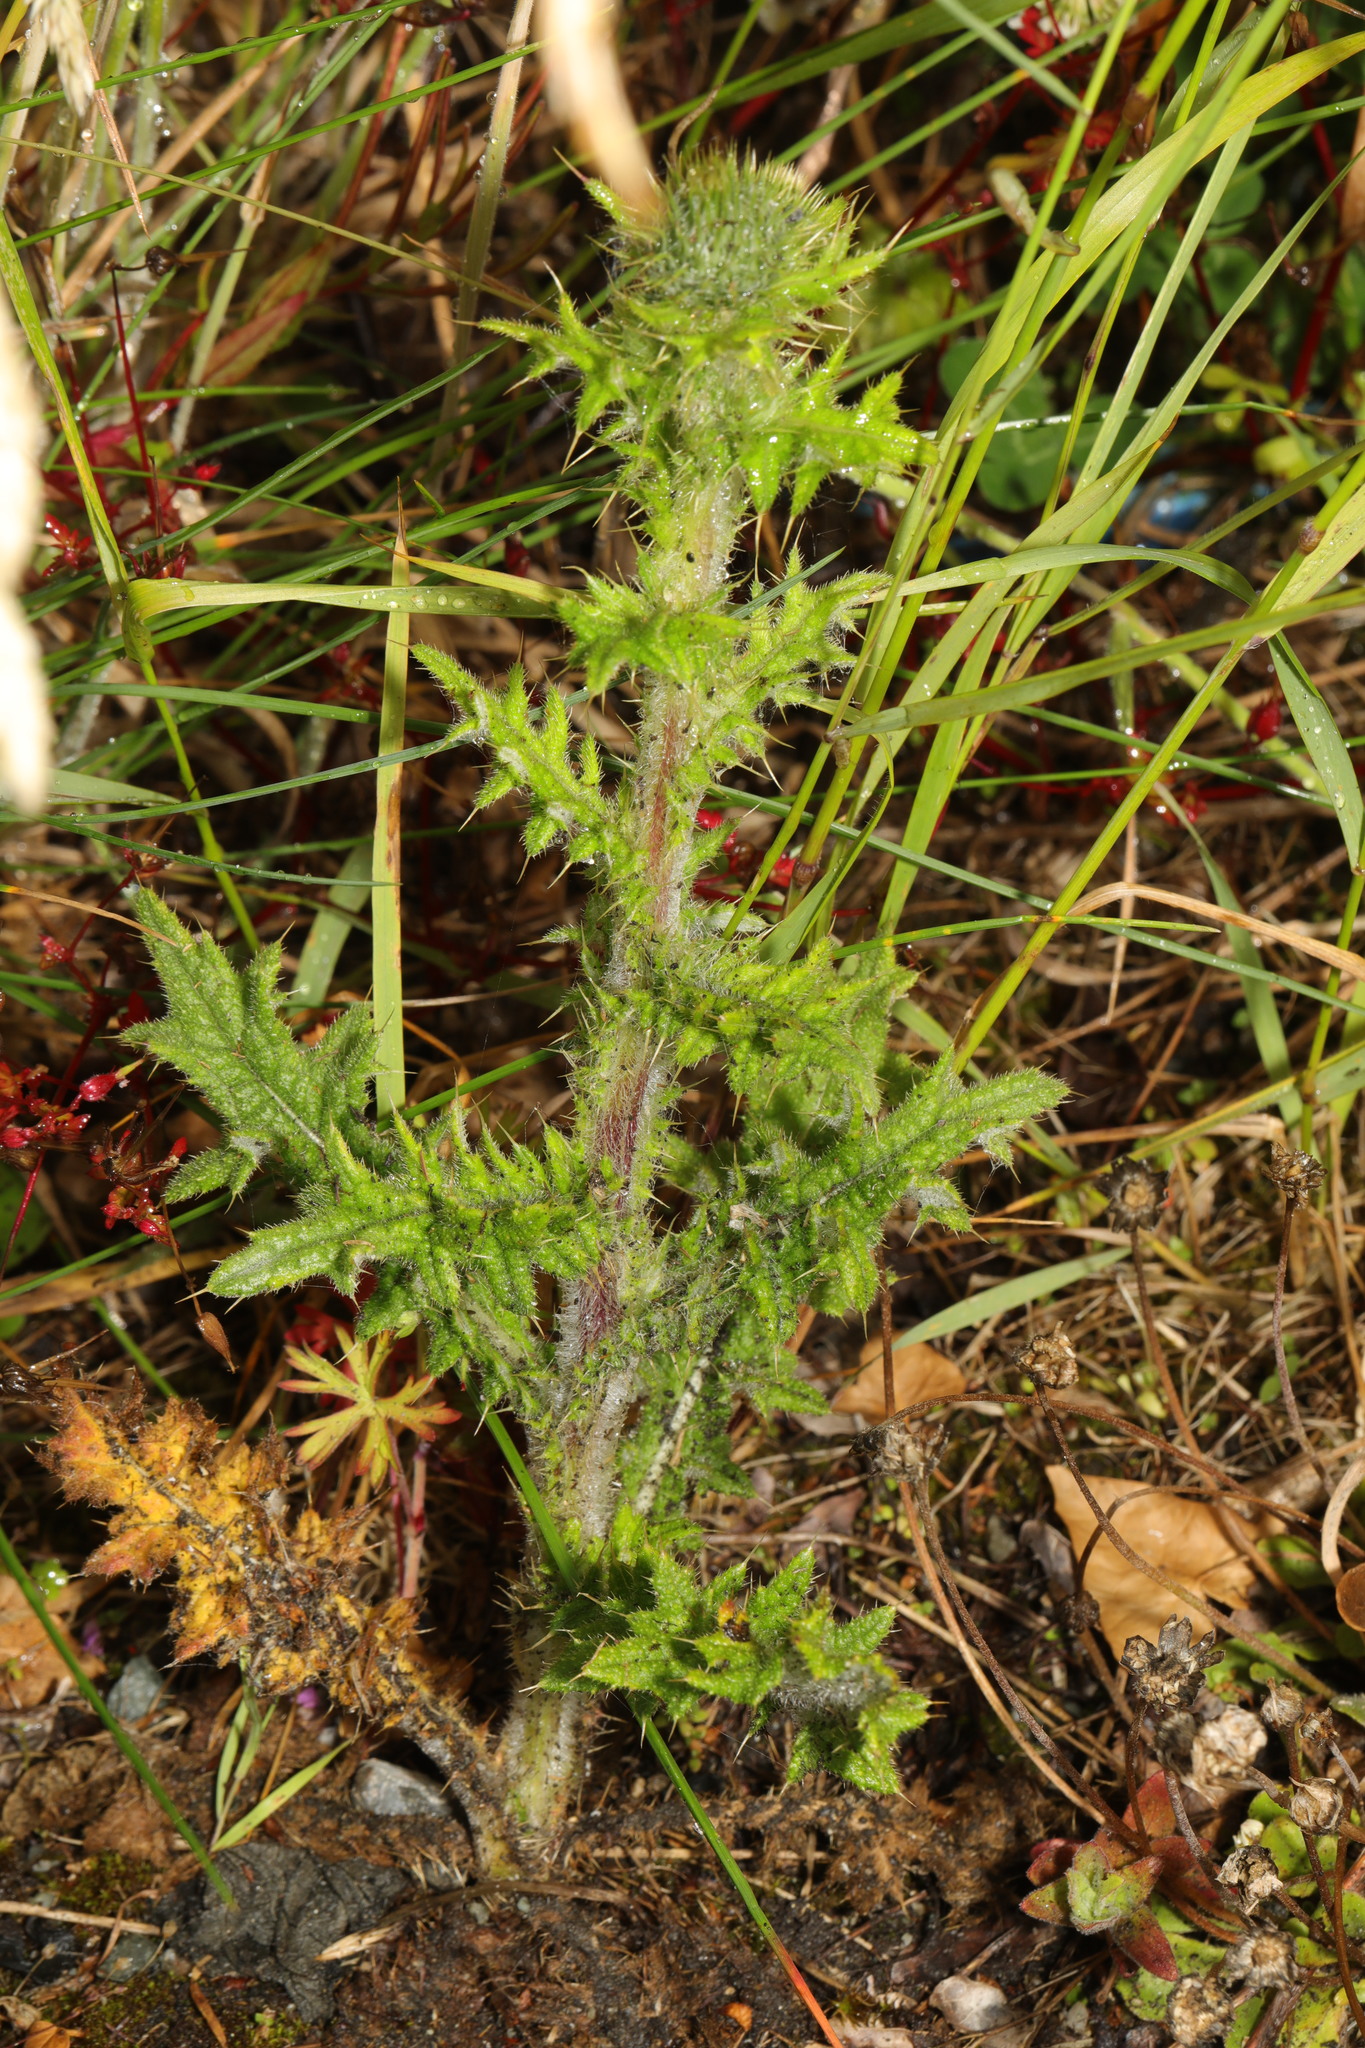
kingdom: Plantae
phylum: Tracheophyta
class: Magnoliopsida
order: Asterales
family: Asteraceae
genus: Cirsium
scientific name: Cirsium vulgare
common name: Bull thistle
